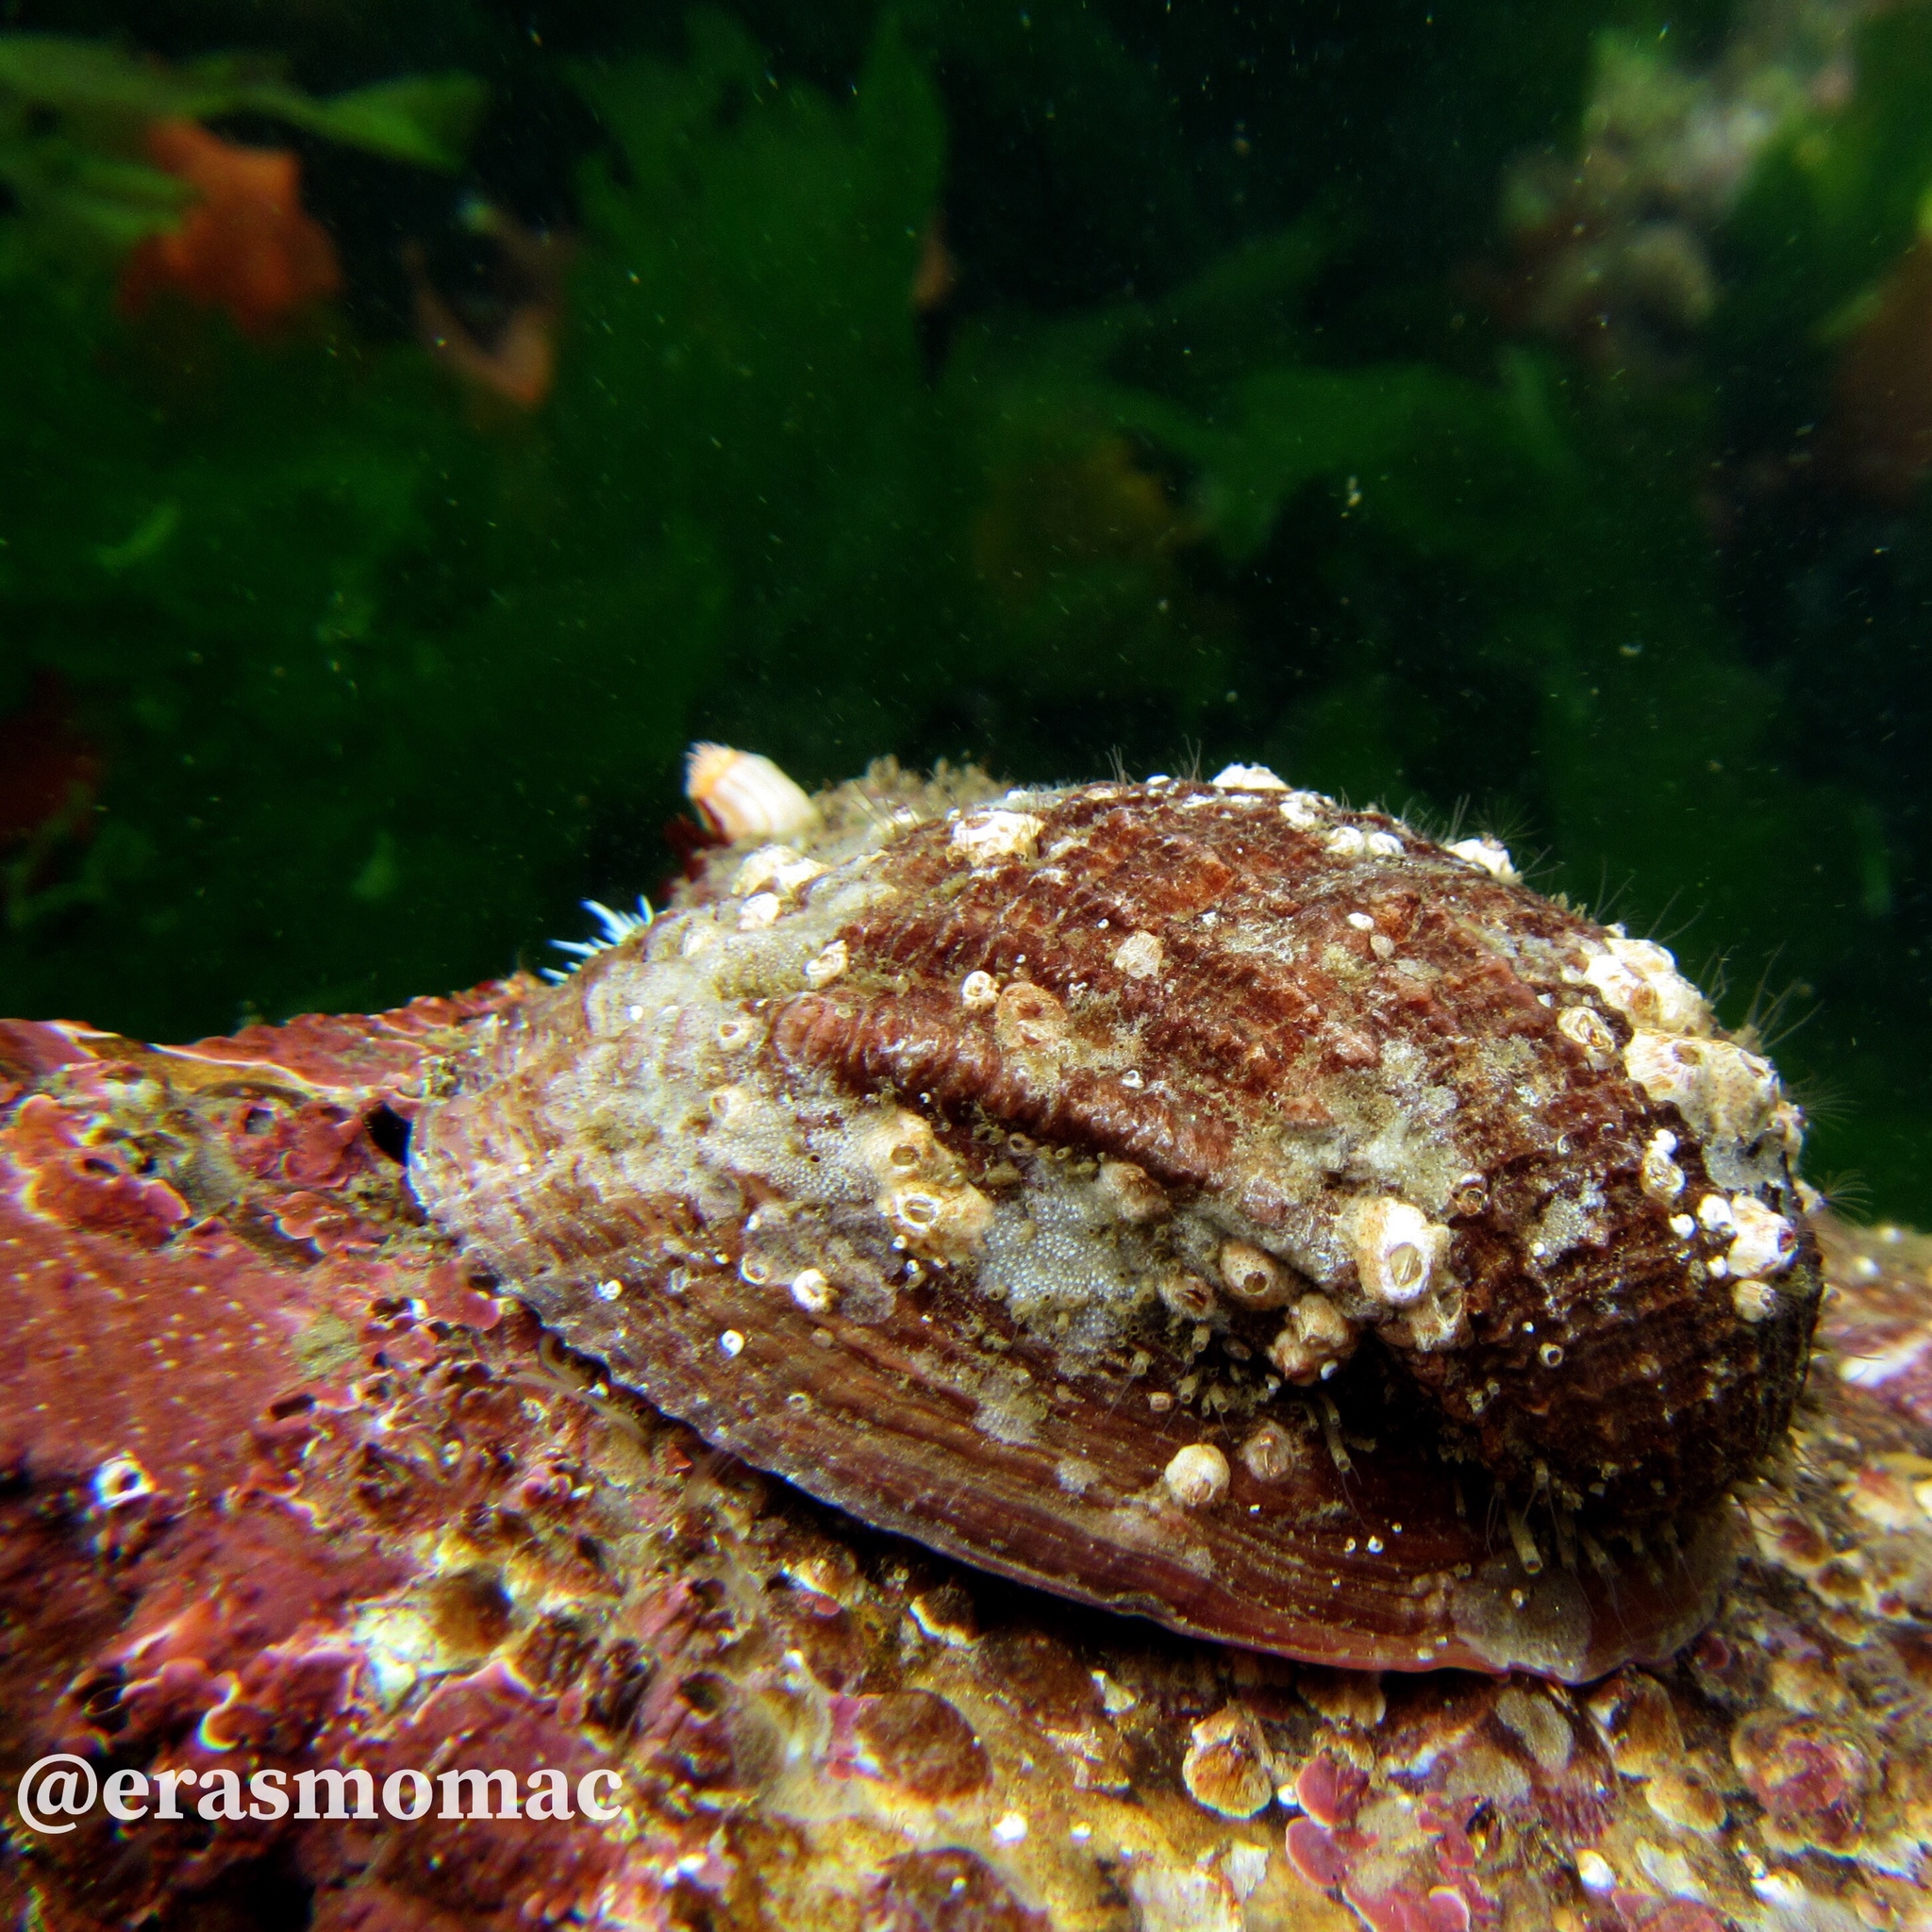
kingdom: Animalia
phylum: Mollusca
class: Gastropoda
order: Neogastropoda
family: Muricidae
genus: Concholepas
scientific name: Concholepas concholepas
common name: Chilean abalone
